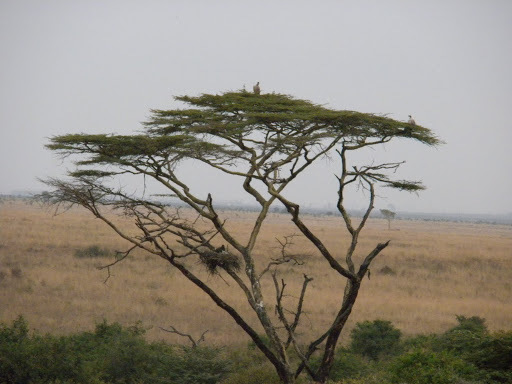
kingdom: Plantae
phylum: Tracheophyta
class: Magnoliopsida
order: Fabales
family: Fabaceae
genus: Vachellia
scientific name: Vachellia xanthophloea
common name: Fever tree
